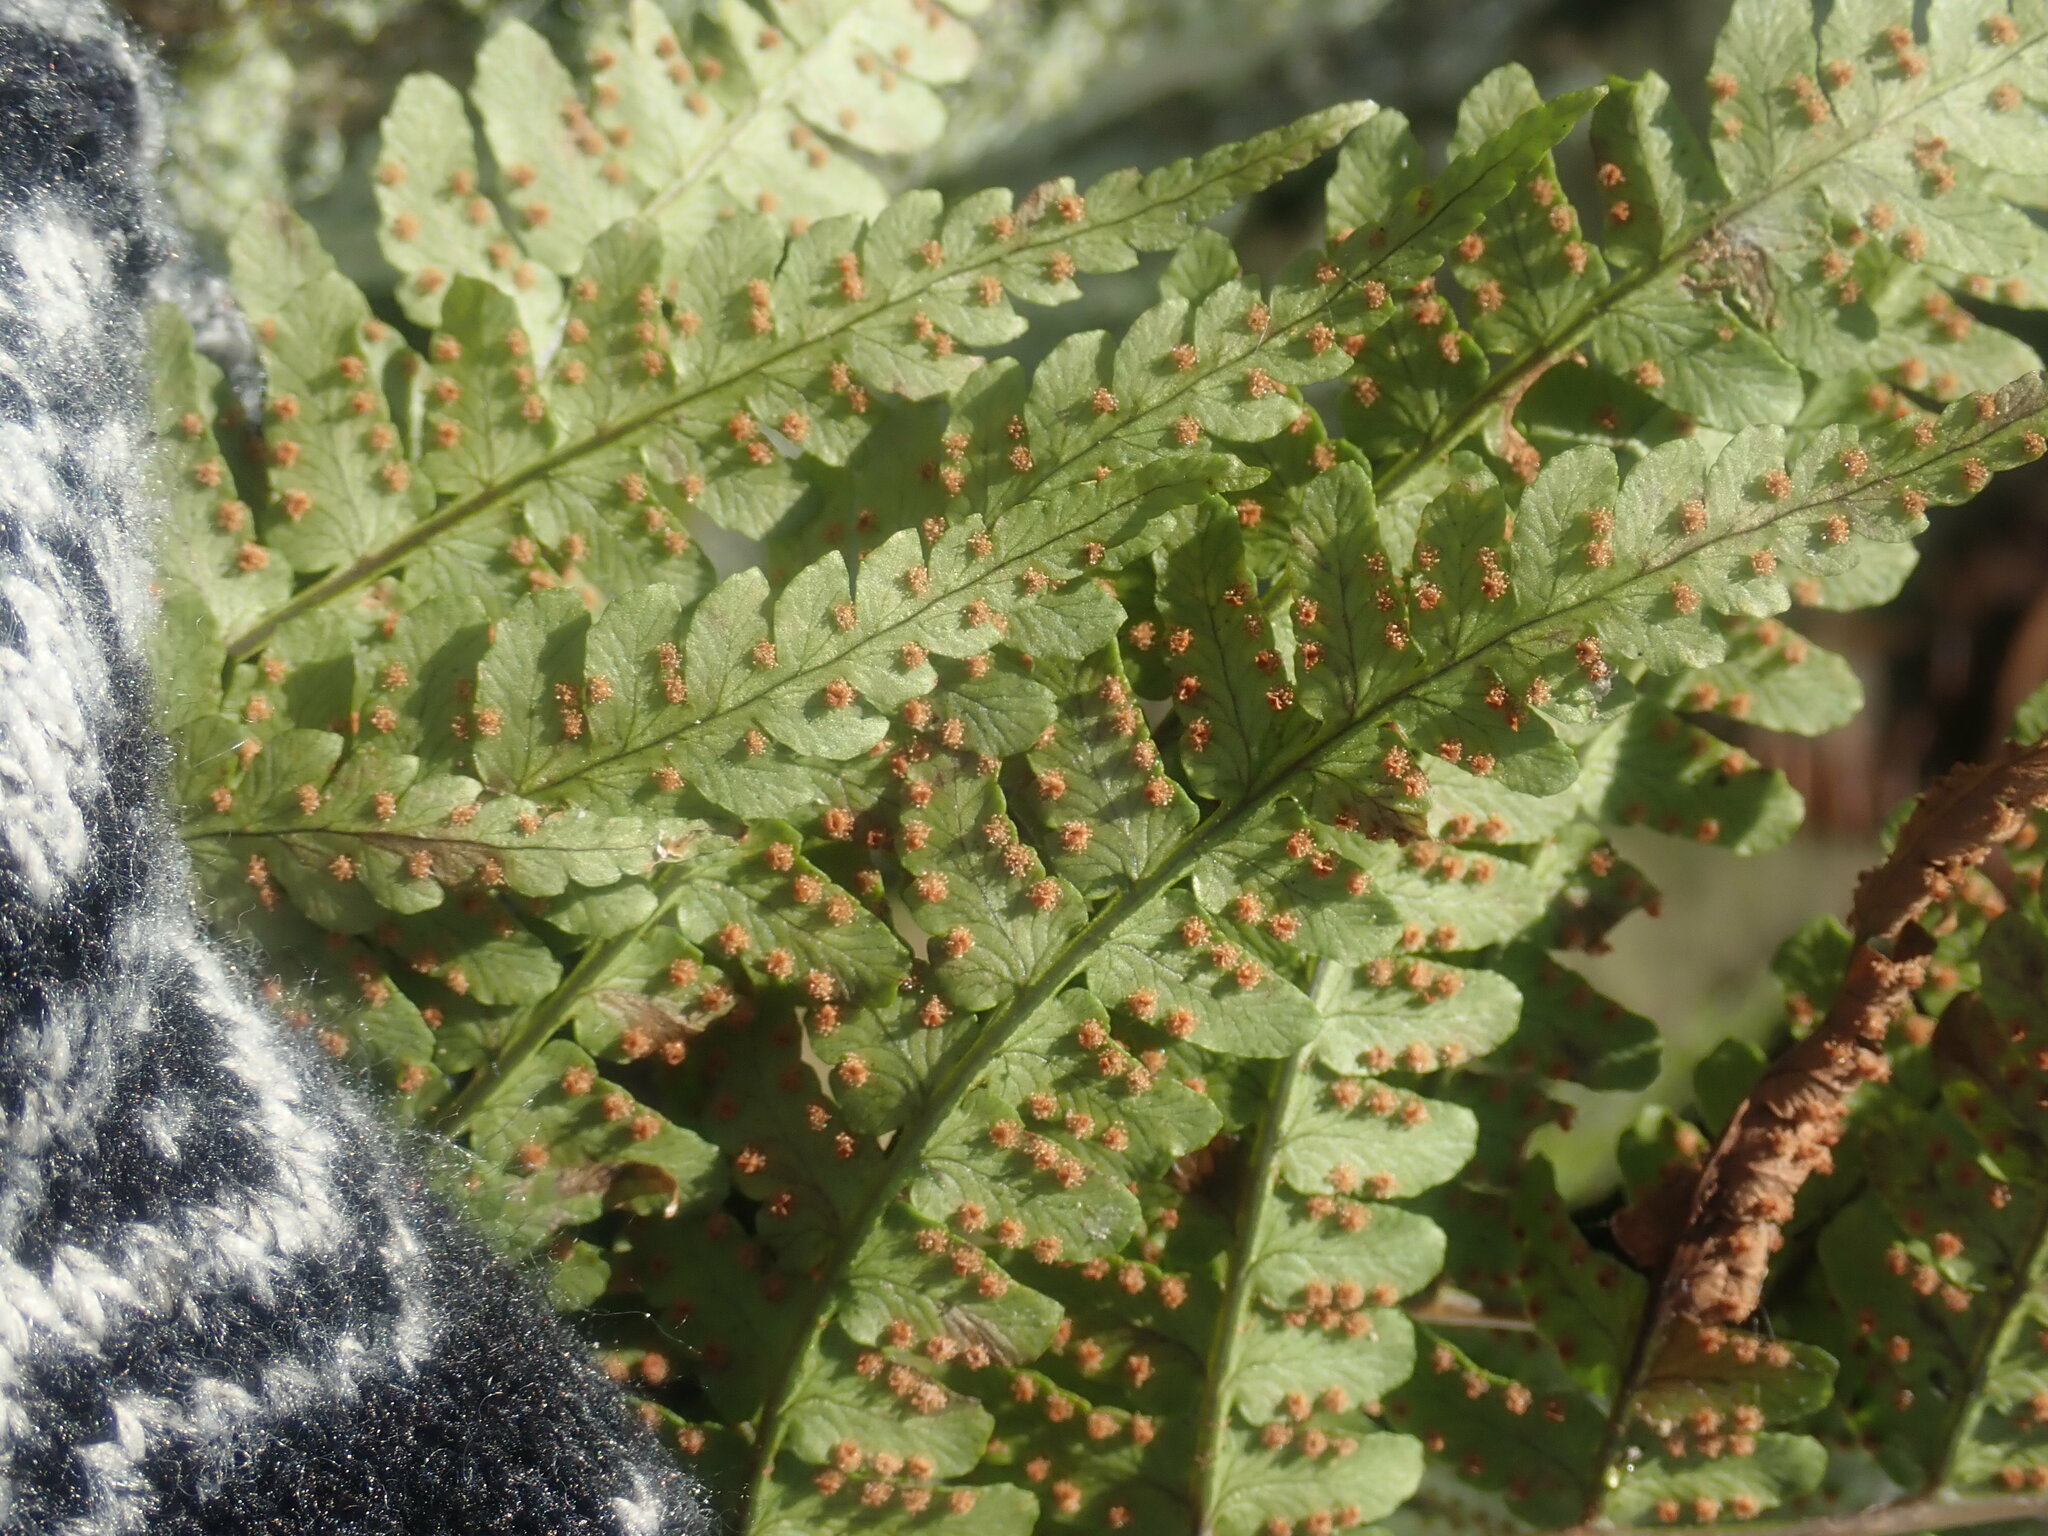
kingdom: Plantae
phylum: Tracheophyta
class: Polypodiopsida
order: Polypodiales
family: Dryopteridaceae
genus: Dryopteris
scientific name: Dryopteris marginalis
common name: Marginal wood fern
